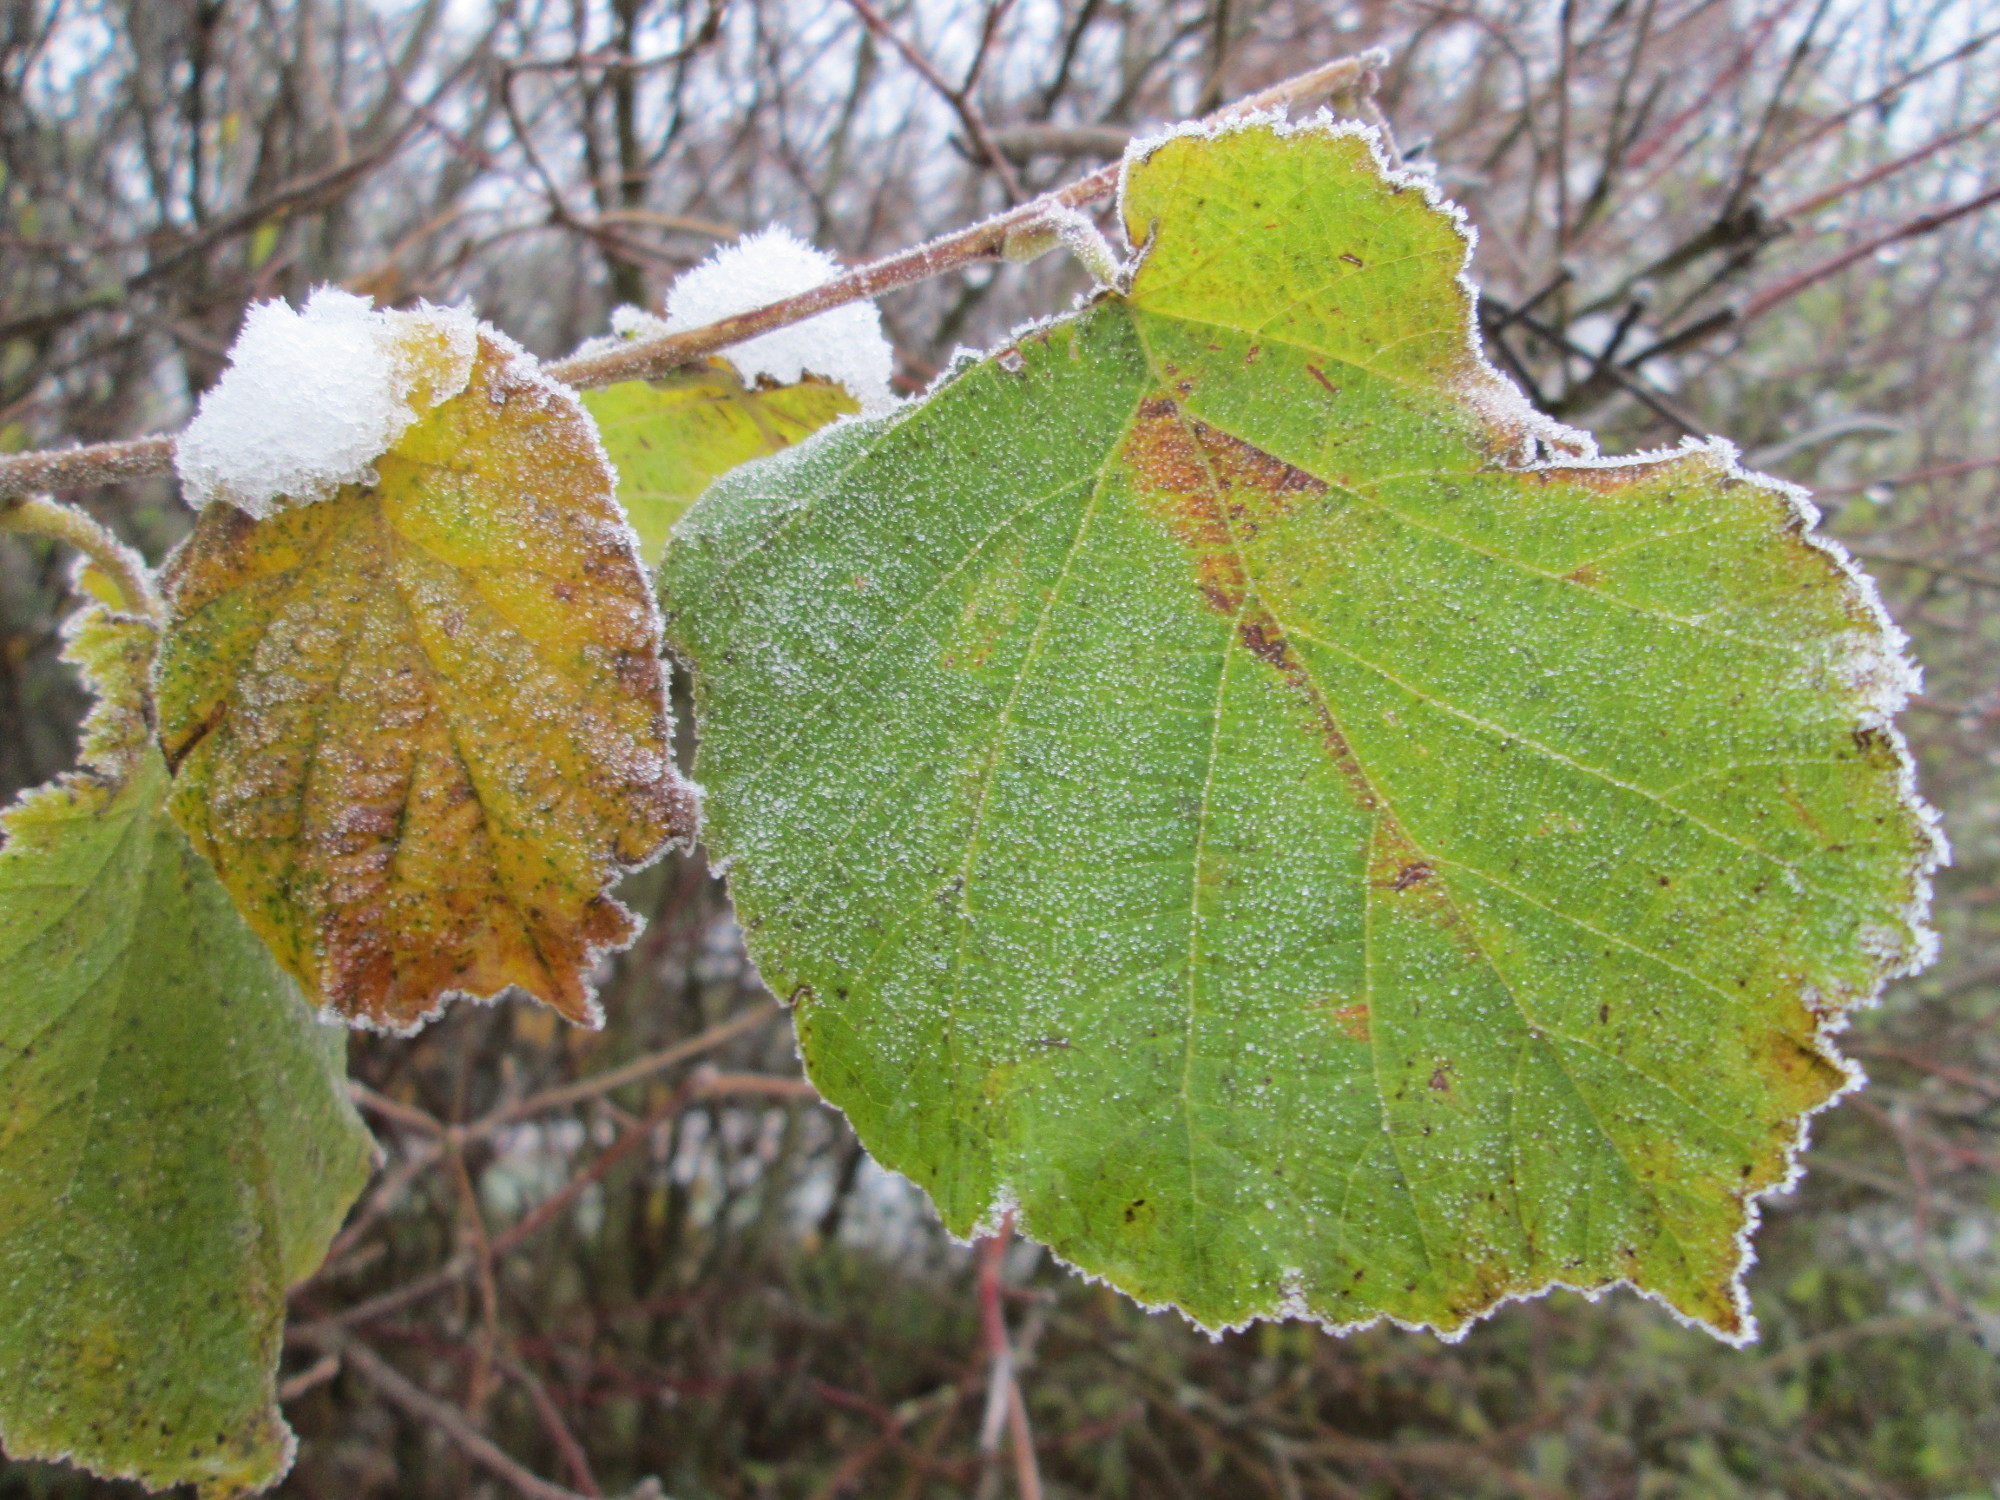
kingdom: Plantae
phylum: Tracheophyta
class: Magnoliopsida
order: Fagales
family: Betulaceae
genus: Corylus
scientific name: Corylus avellana
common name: European hazel
